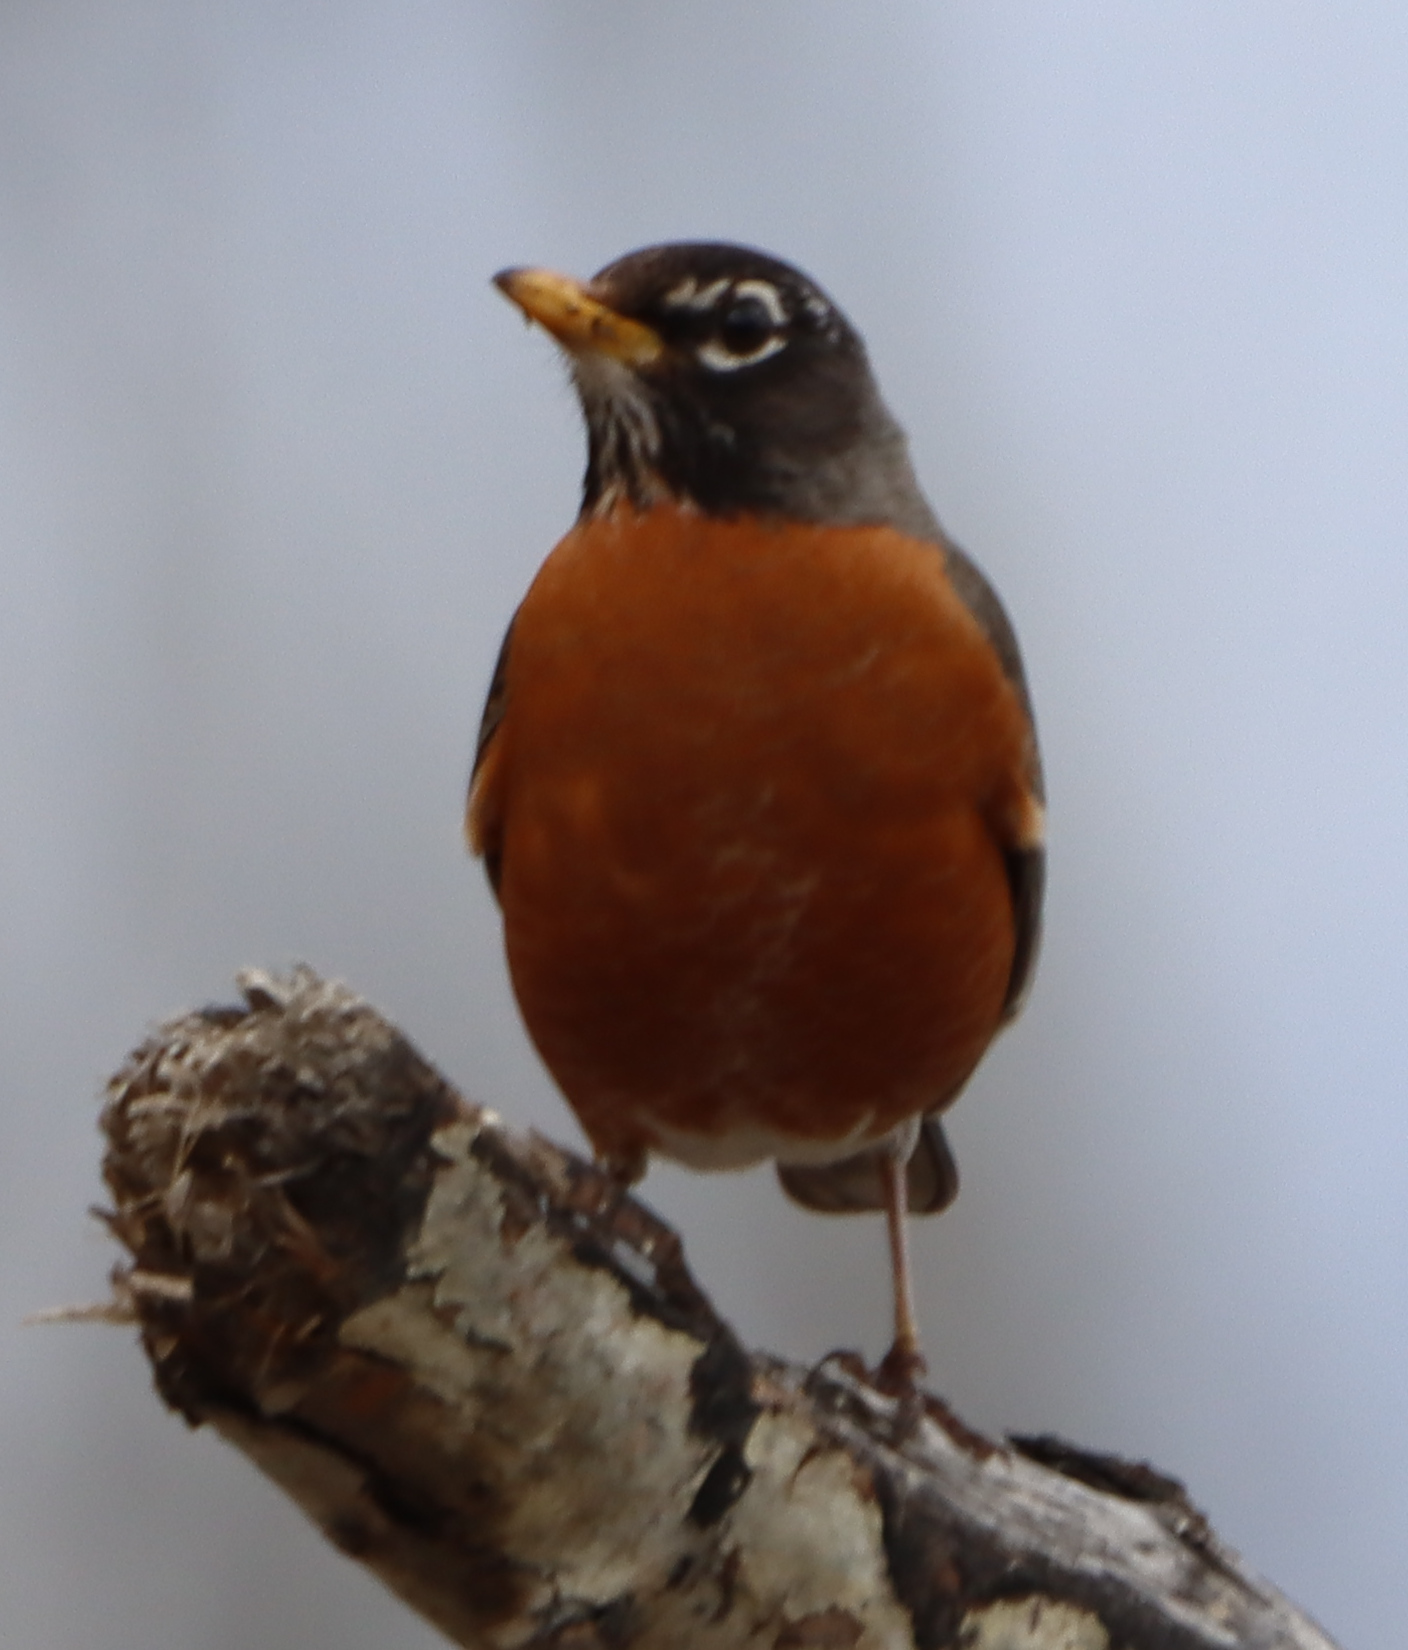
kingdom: Animalia
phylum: Chordata
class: Aves
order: Passeriformes
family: Turdidae
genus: Turdus
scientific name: Turdus migratorius
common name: American robin
